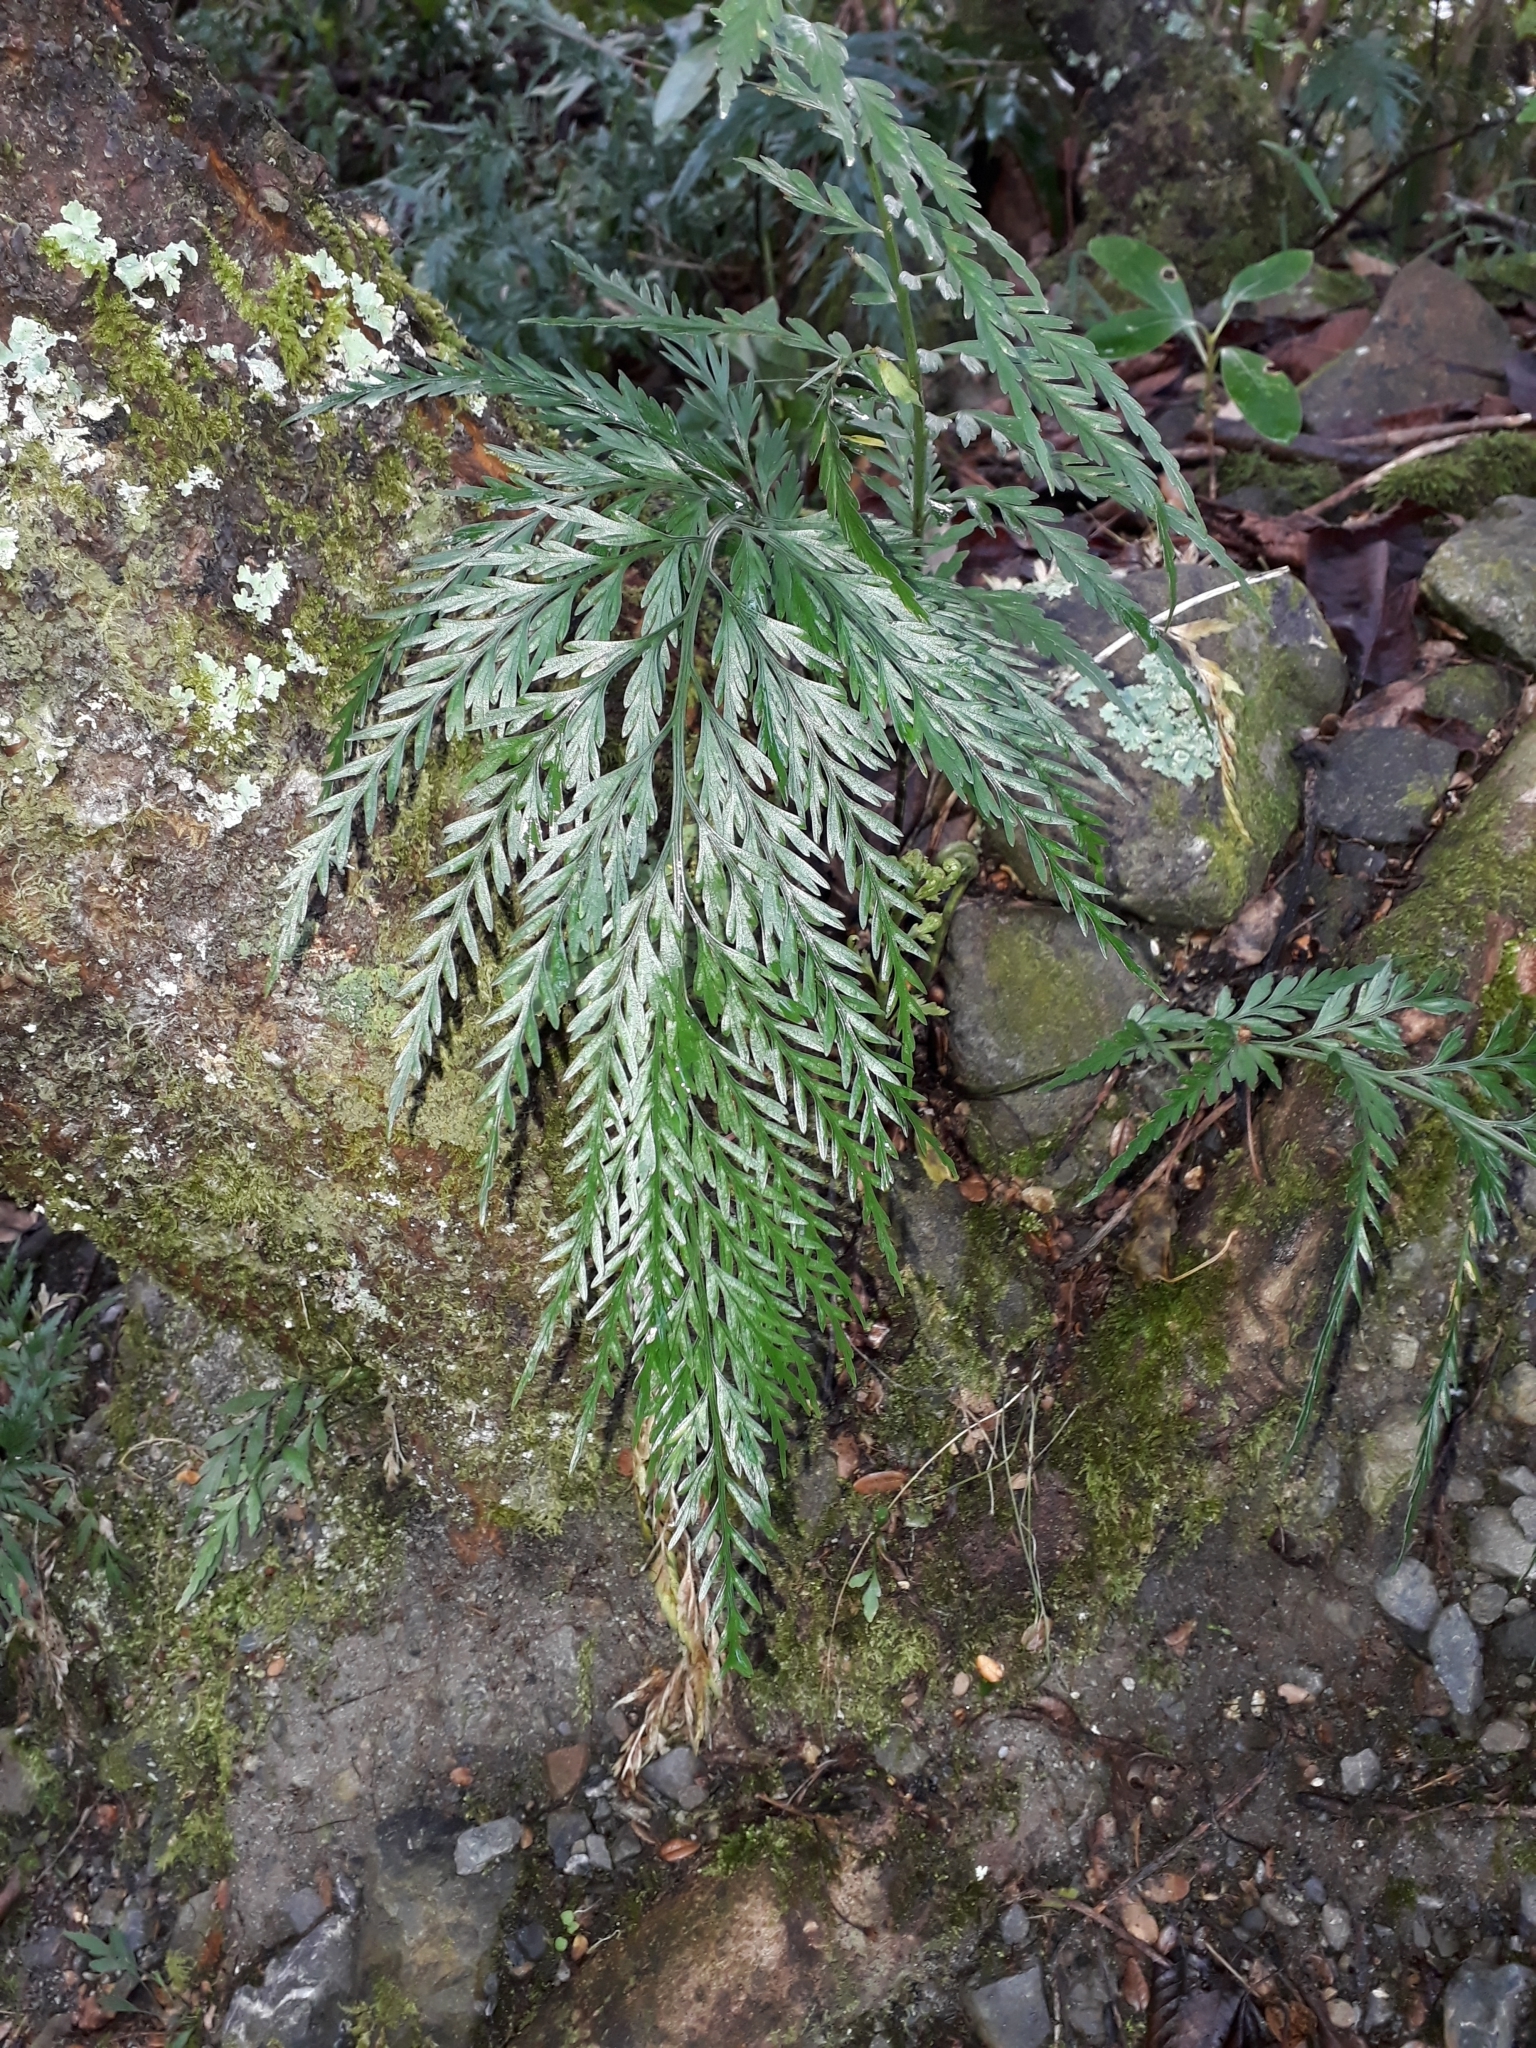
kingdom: Plantae
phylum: Tracheophyta
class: Polypodiopsida
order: Polypodiales
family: Aspleniaceae
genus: Asplenium
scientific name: Asplenium appendiculatum
